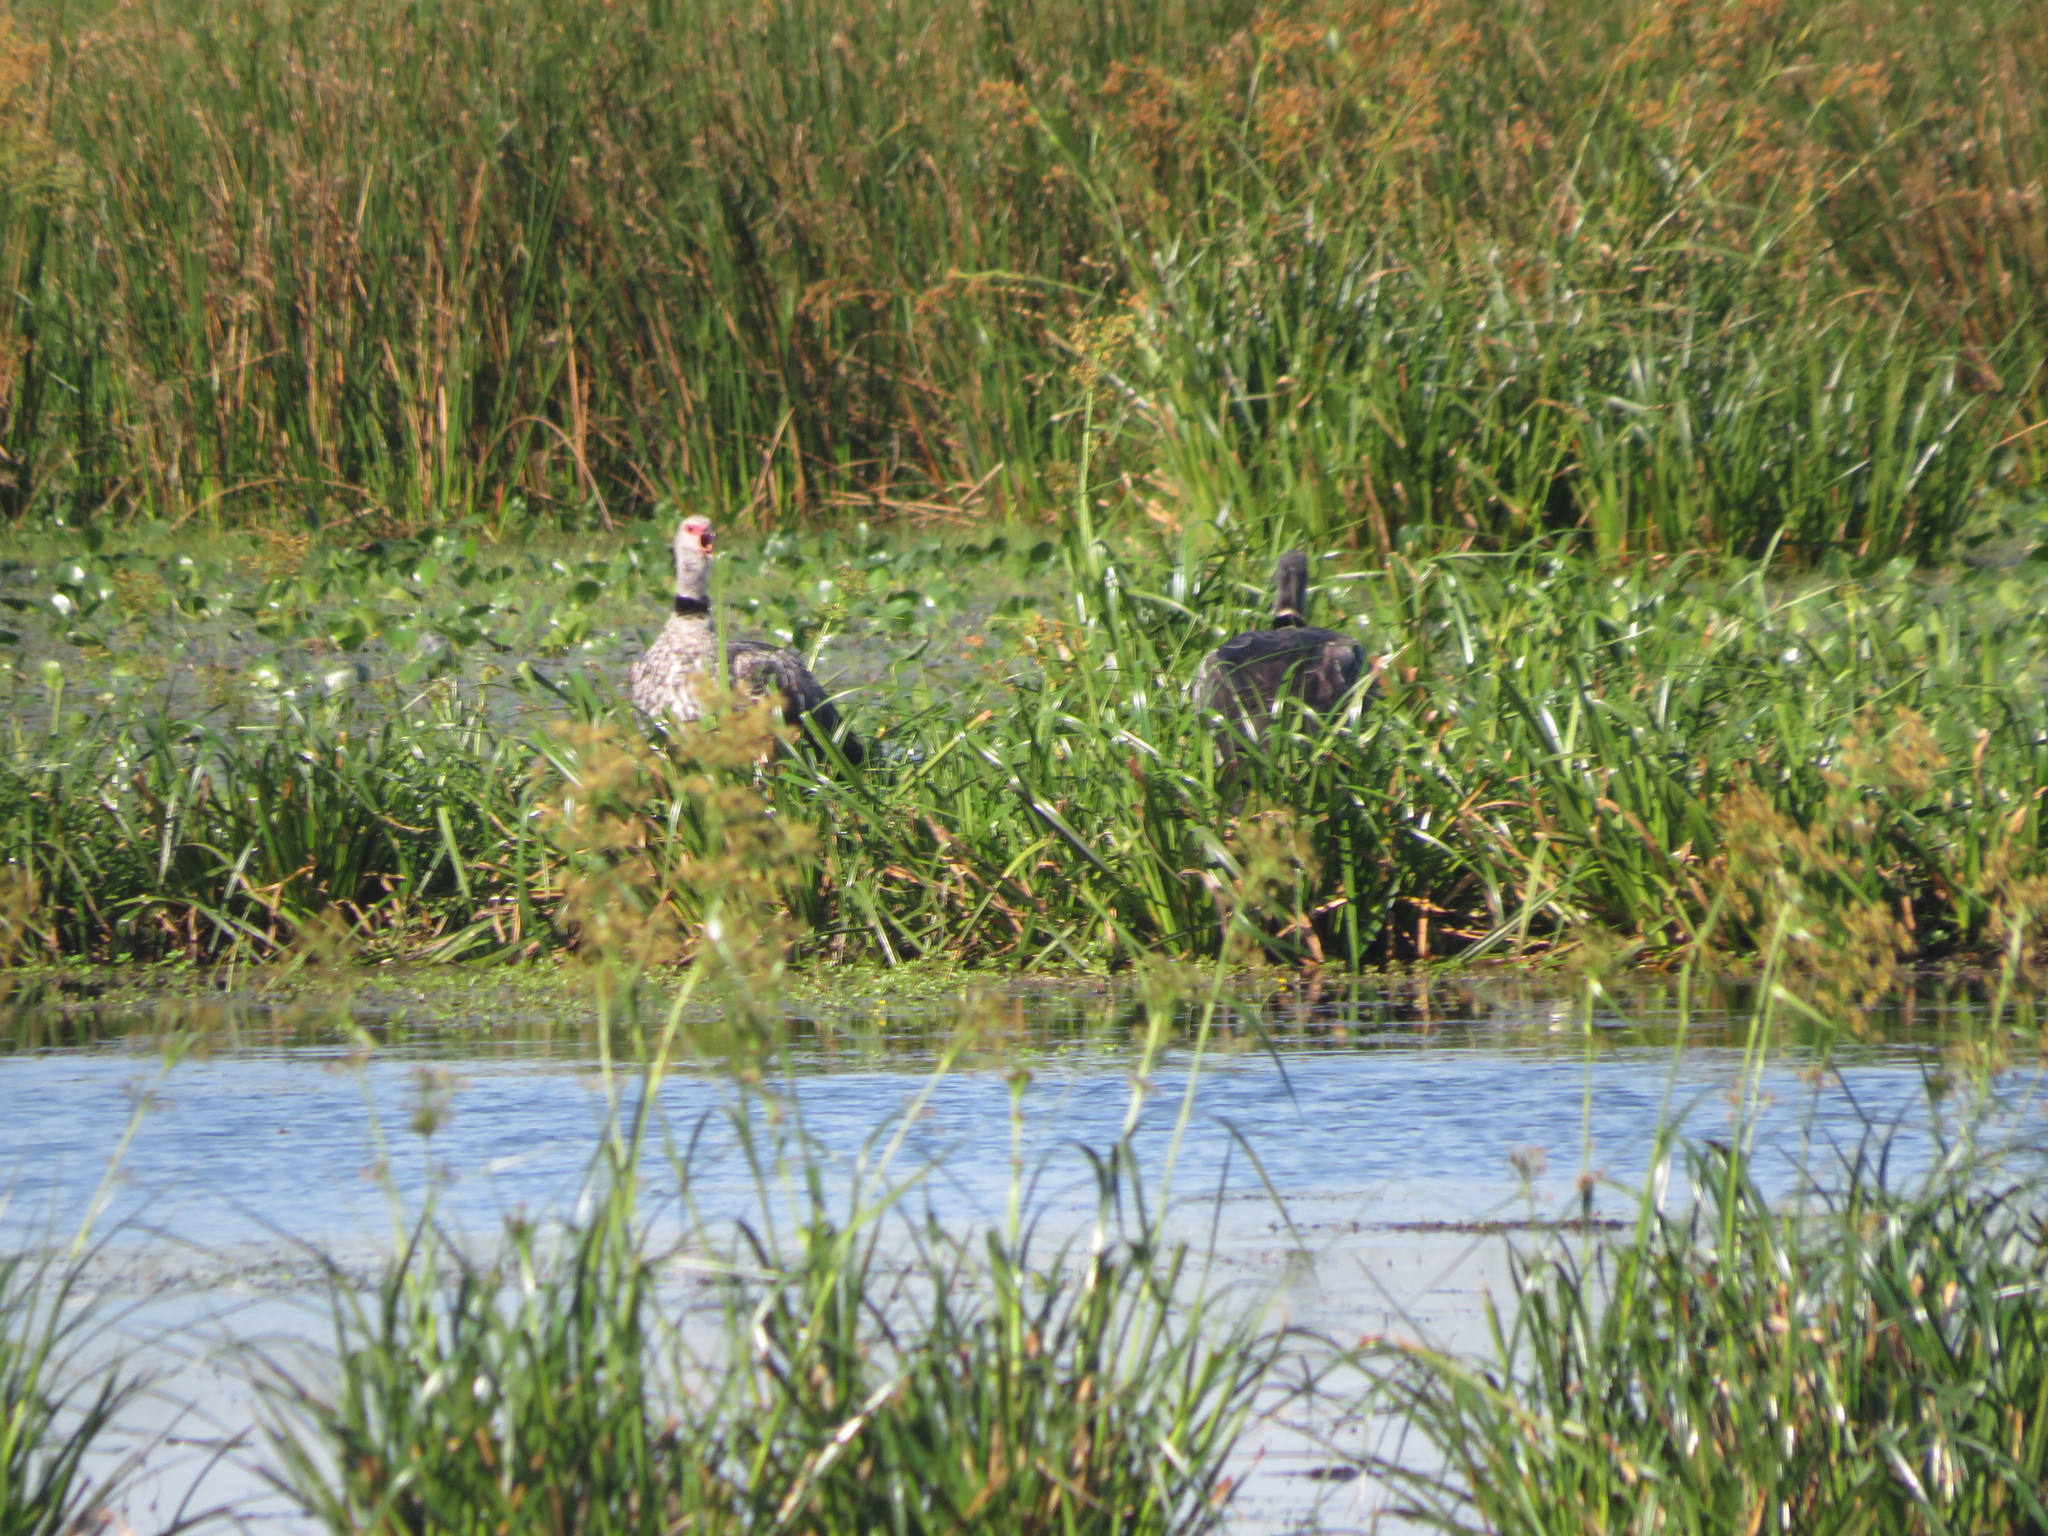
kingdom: Animalia
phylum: Chordata
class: Aves
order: Anseriformes
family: Anhimidae
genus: Chauna
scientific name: Chauna torquata
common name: Southern screamer
